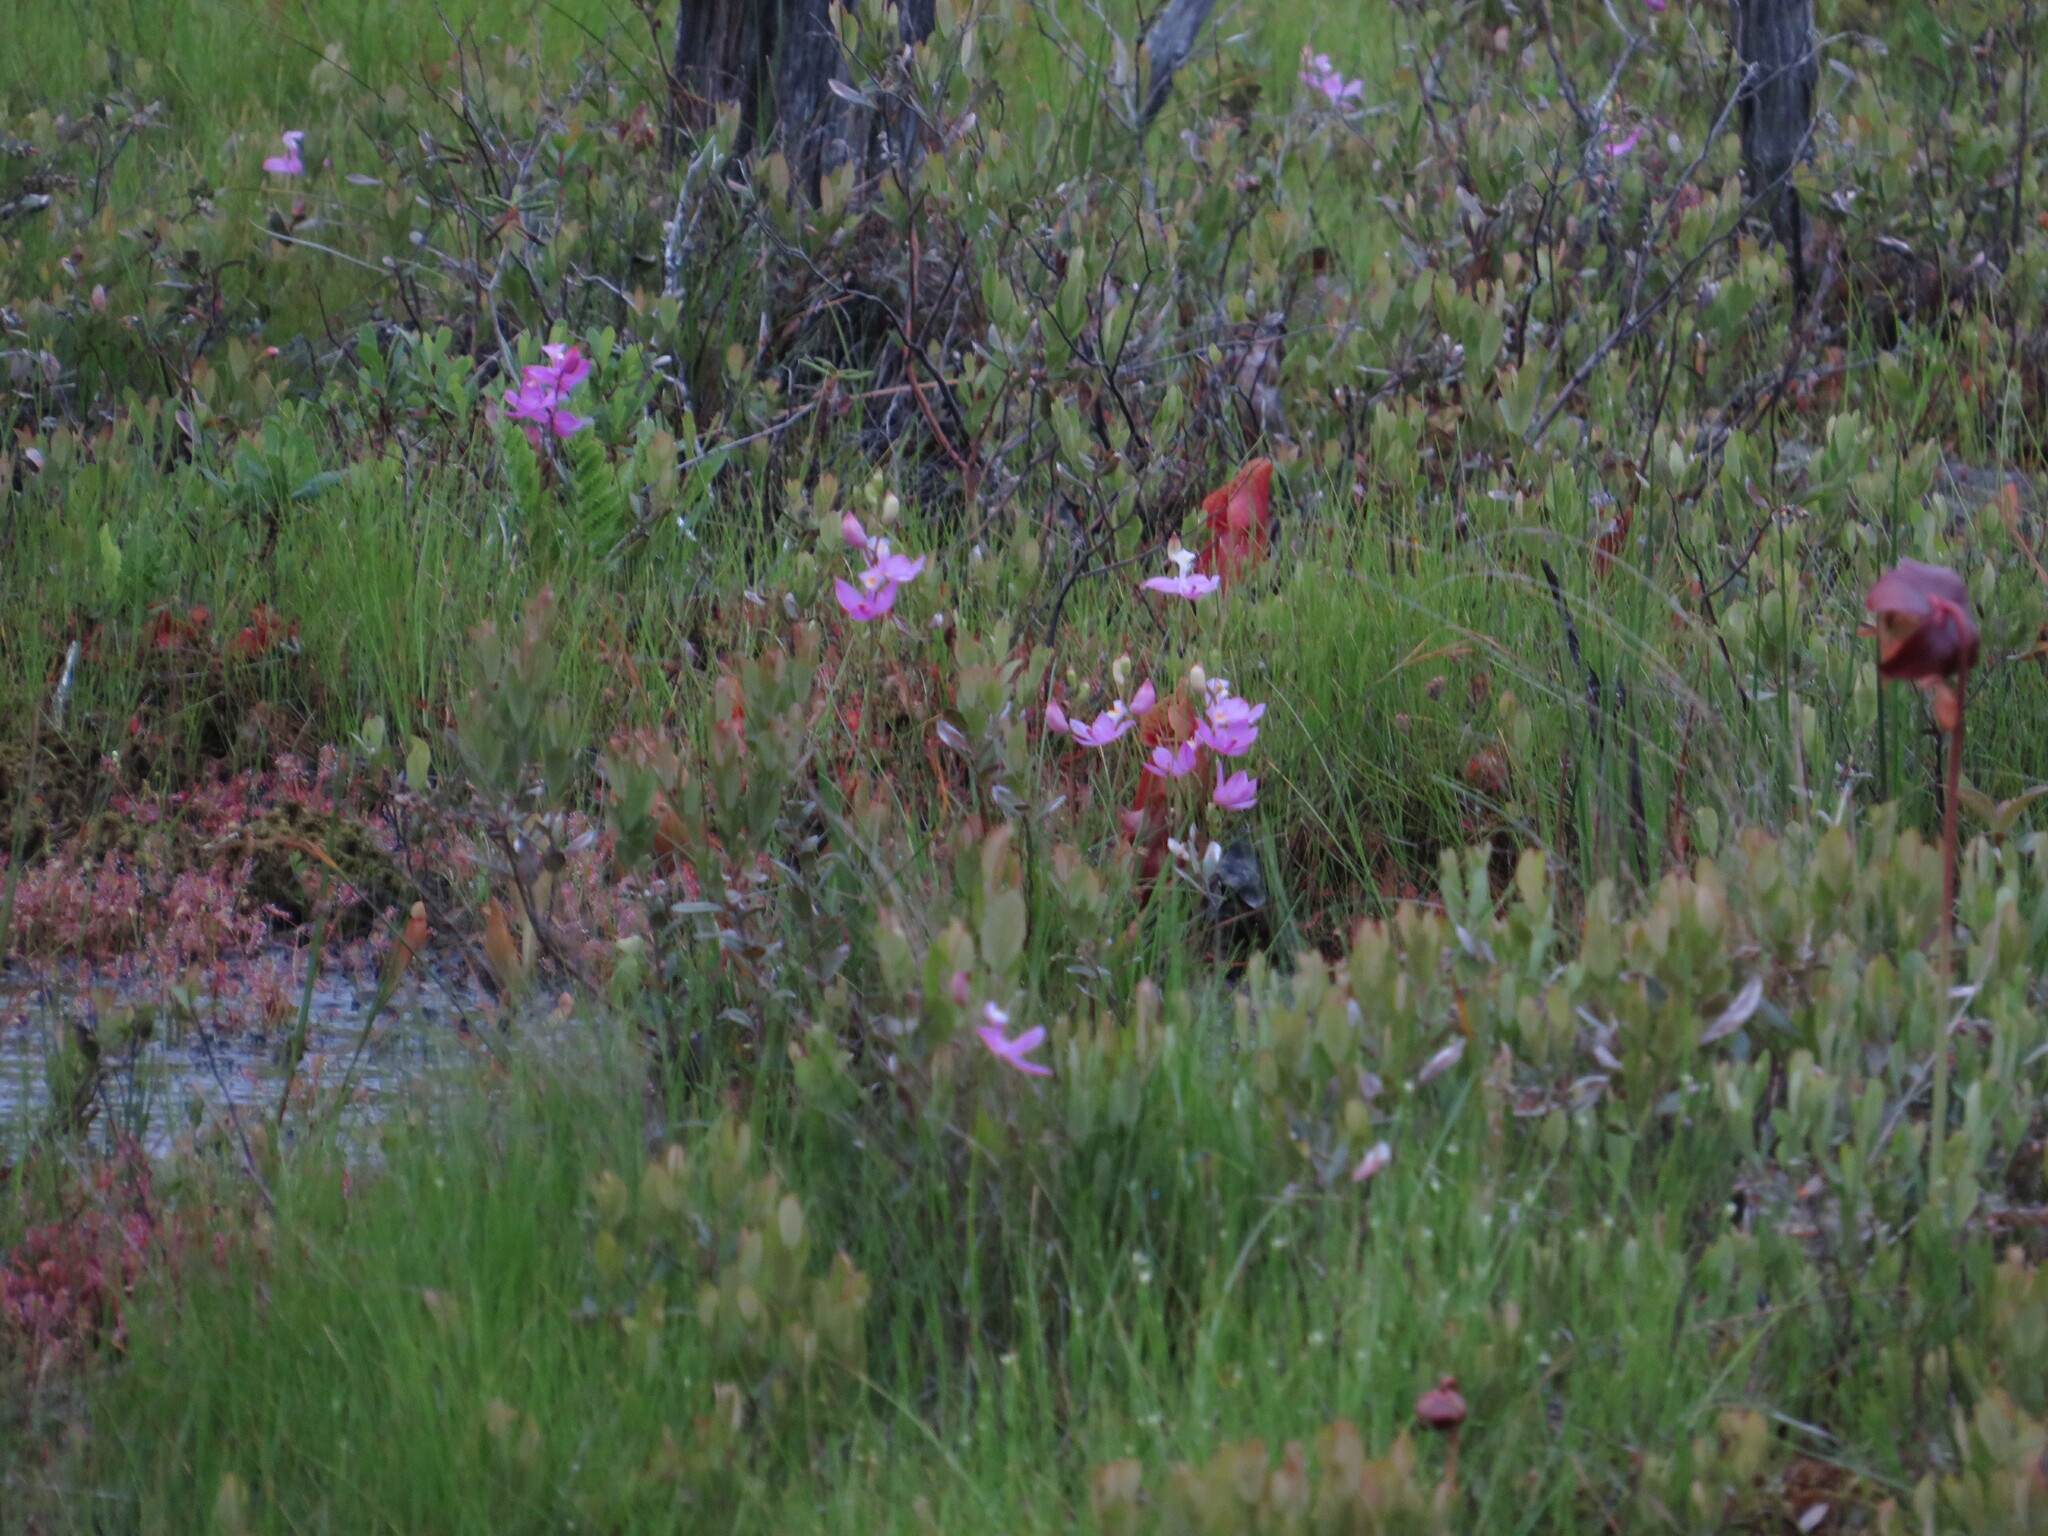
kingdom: Plantae
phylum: Tracheophyta
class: Liliopsida
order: Asparagales
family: Orchidaceae
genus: Calopogon
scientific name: Calopogon tuberosus
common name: Grass-pink
